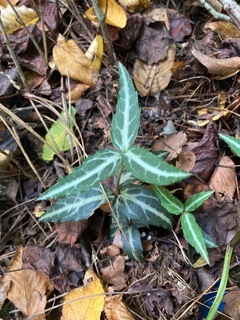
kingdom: Plantae
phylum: Tracheophyta
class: Magnoliopsida
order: Ericales
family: Ericaceae
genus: Chimaphila
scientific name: Chimaphila maculata
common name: Spotted pipsissewa
